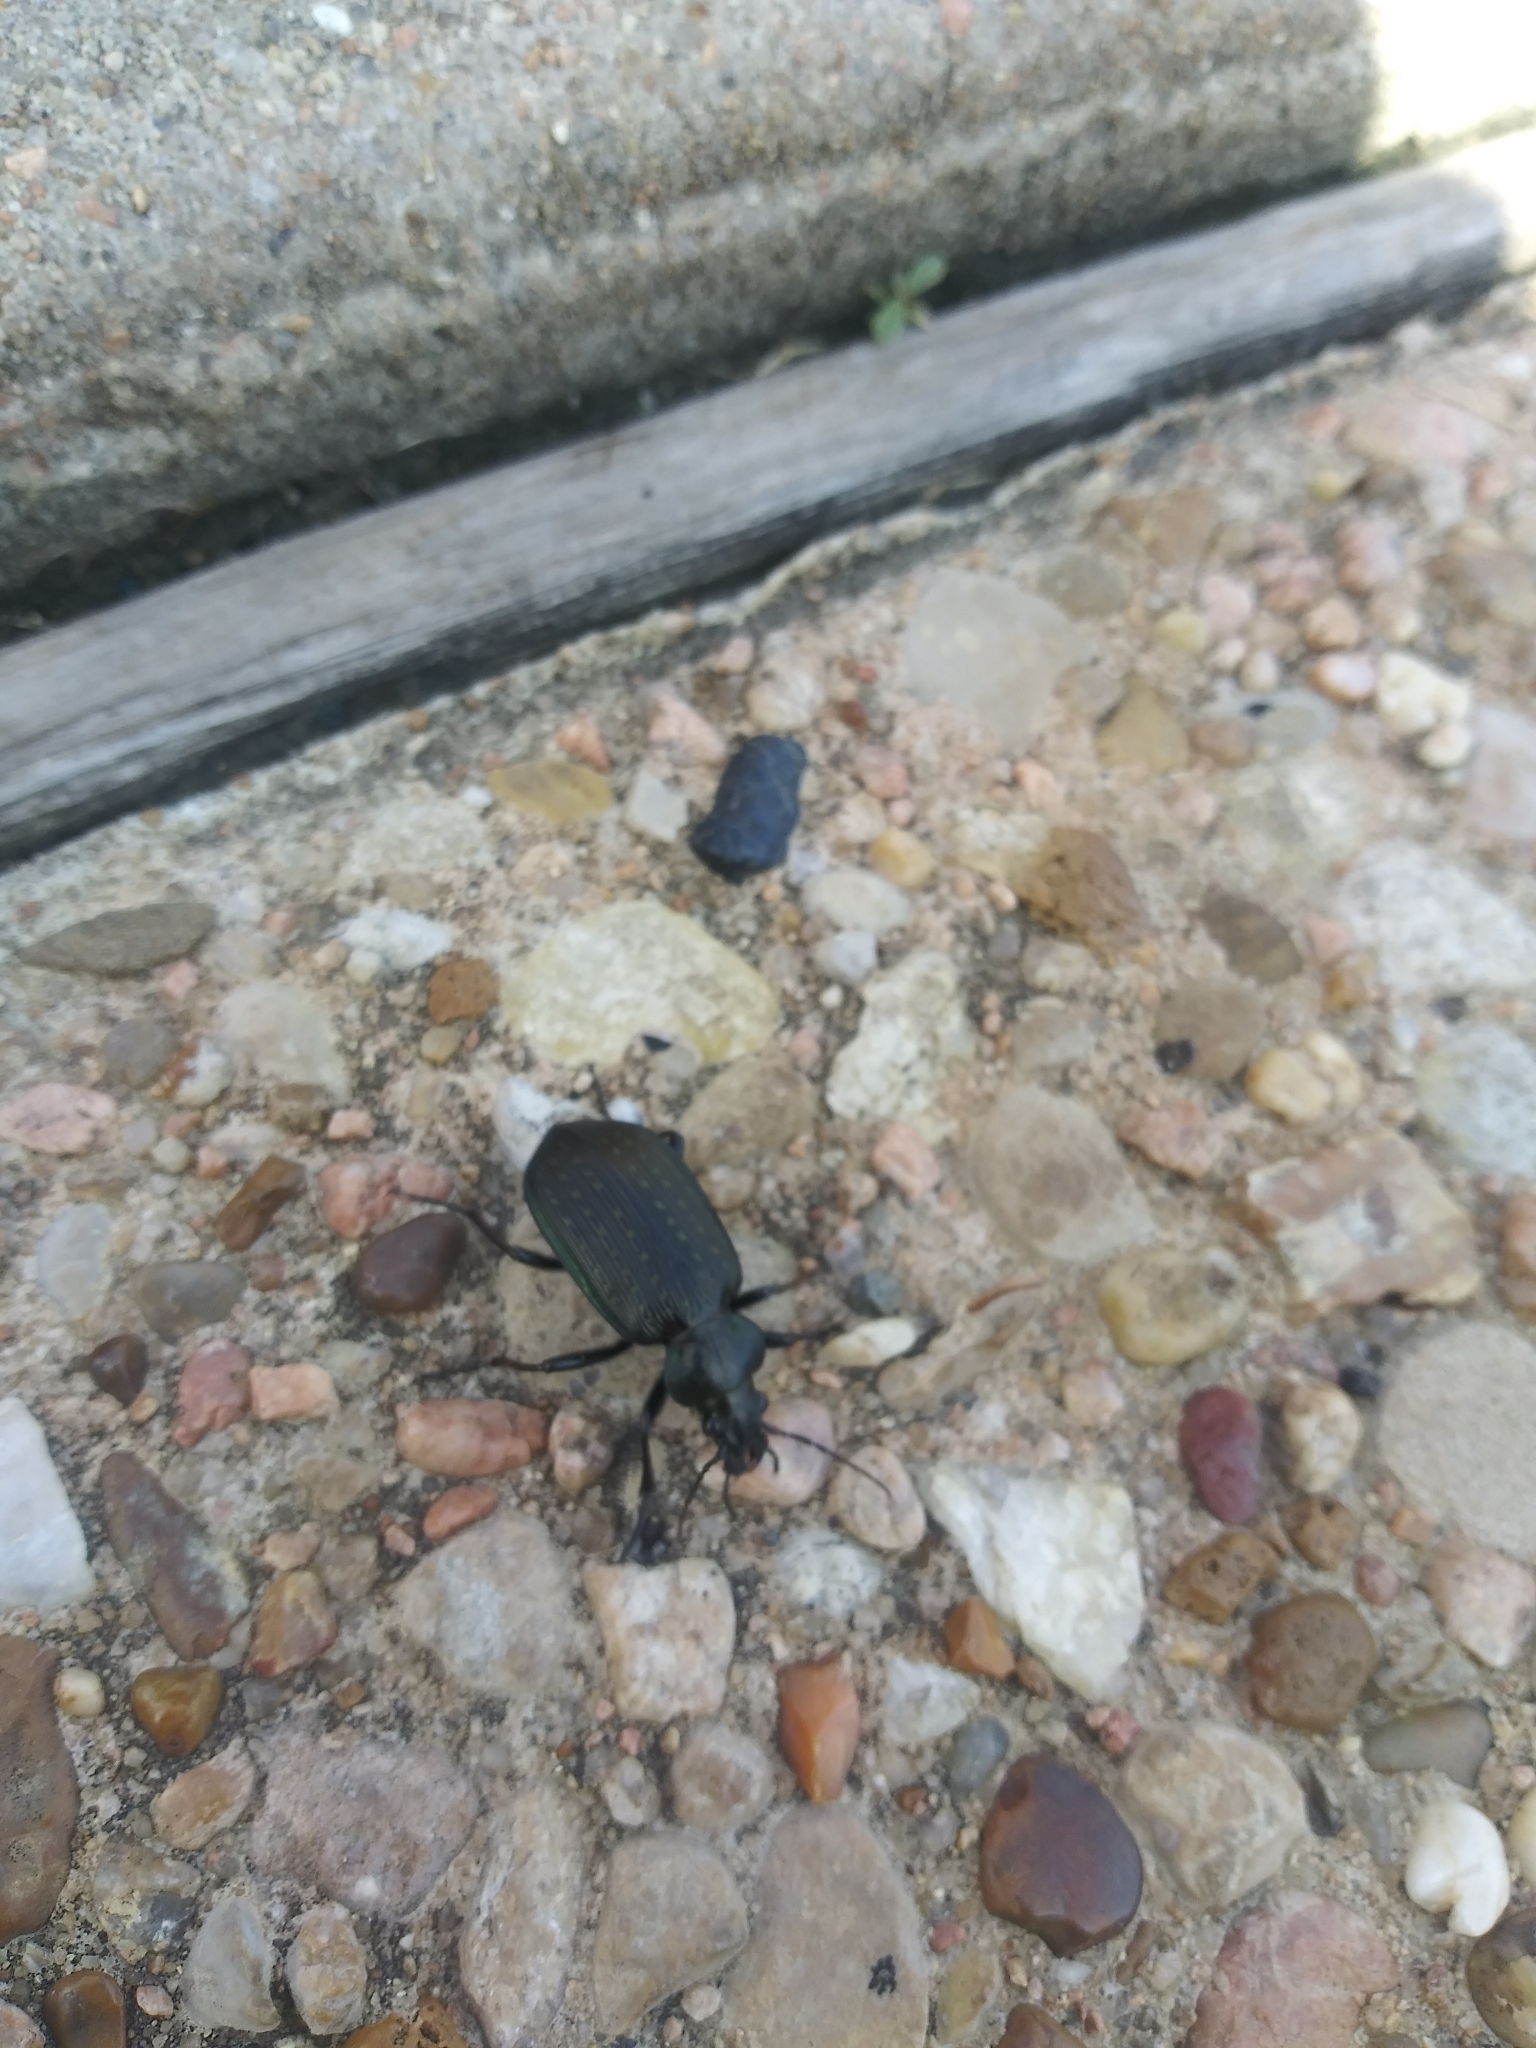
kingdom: Animalia
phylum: Arthropoda
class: Insecta
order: Coleoptera
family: Carabidae
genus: Calosoma
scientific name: Calosoma sayi
